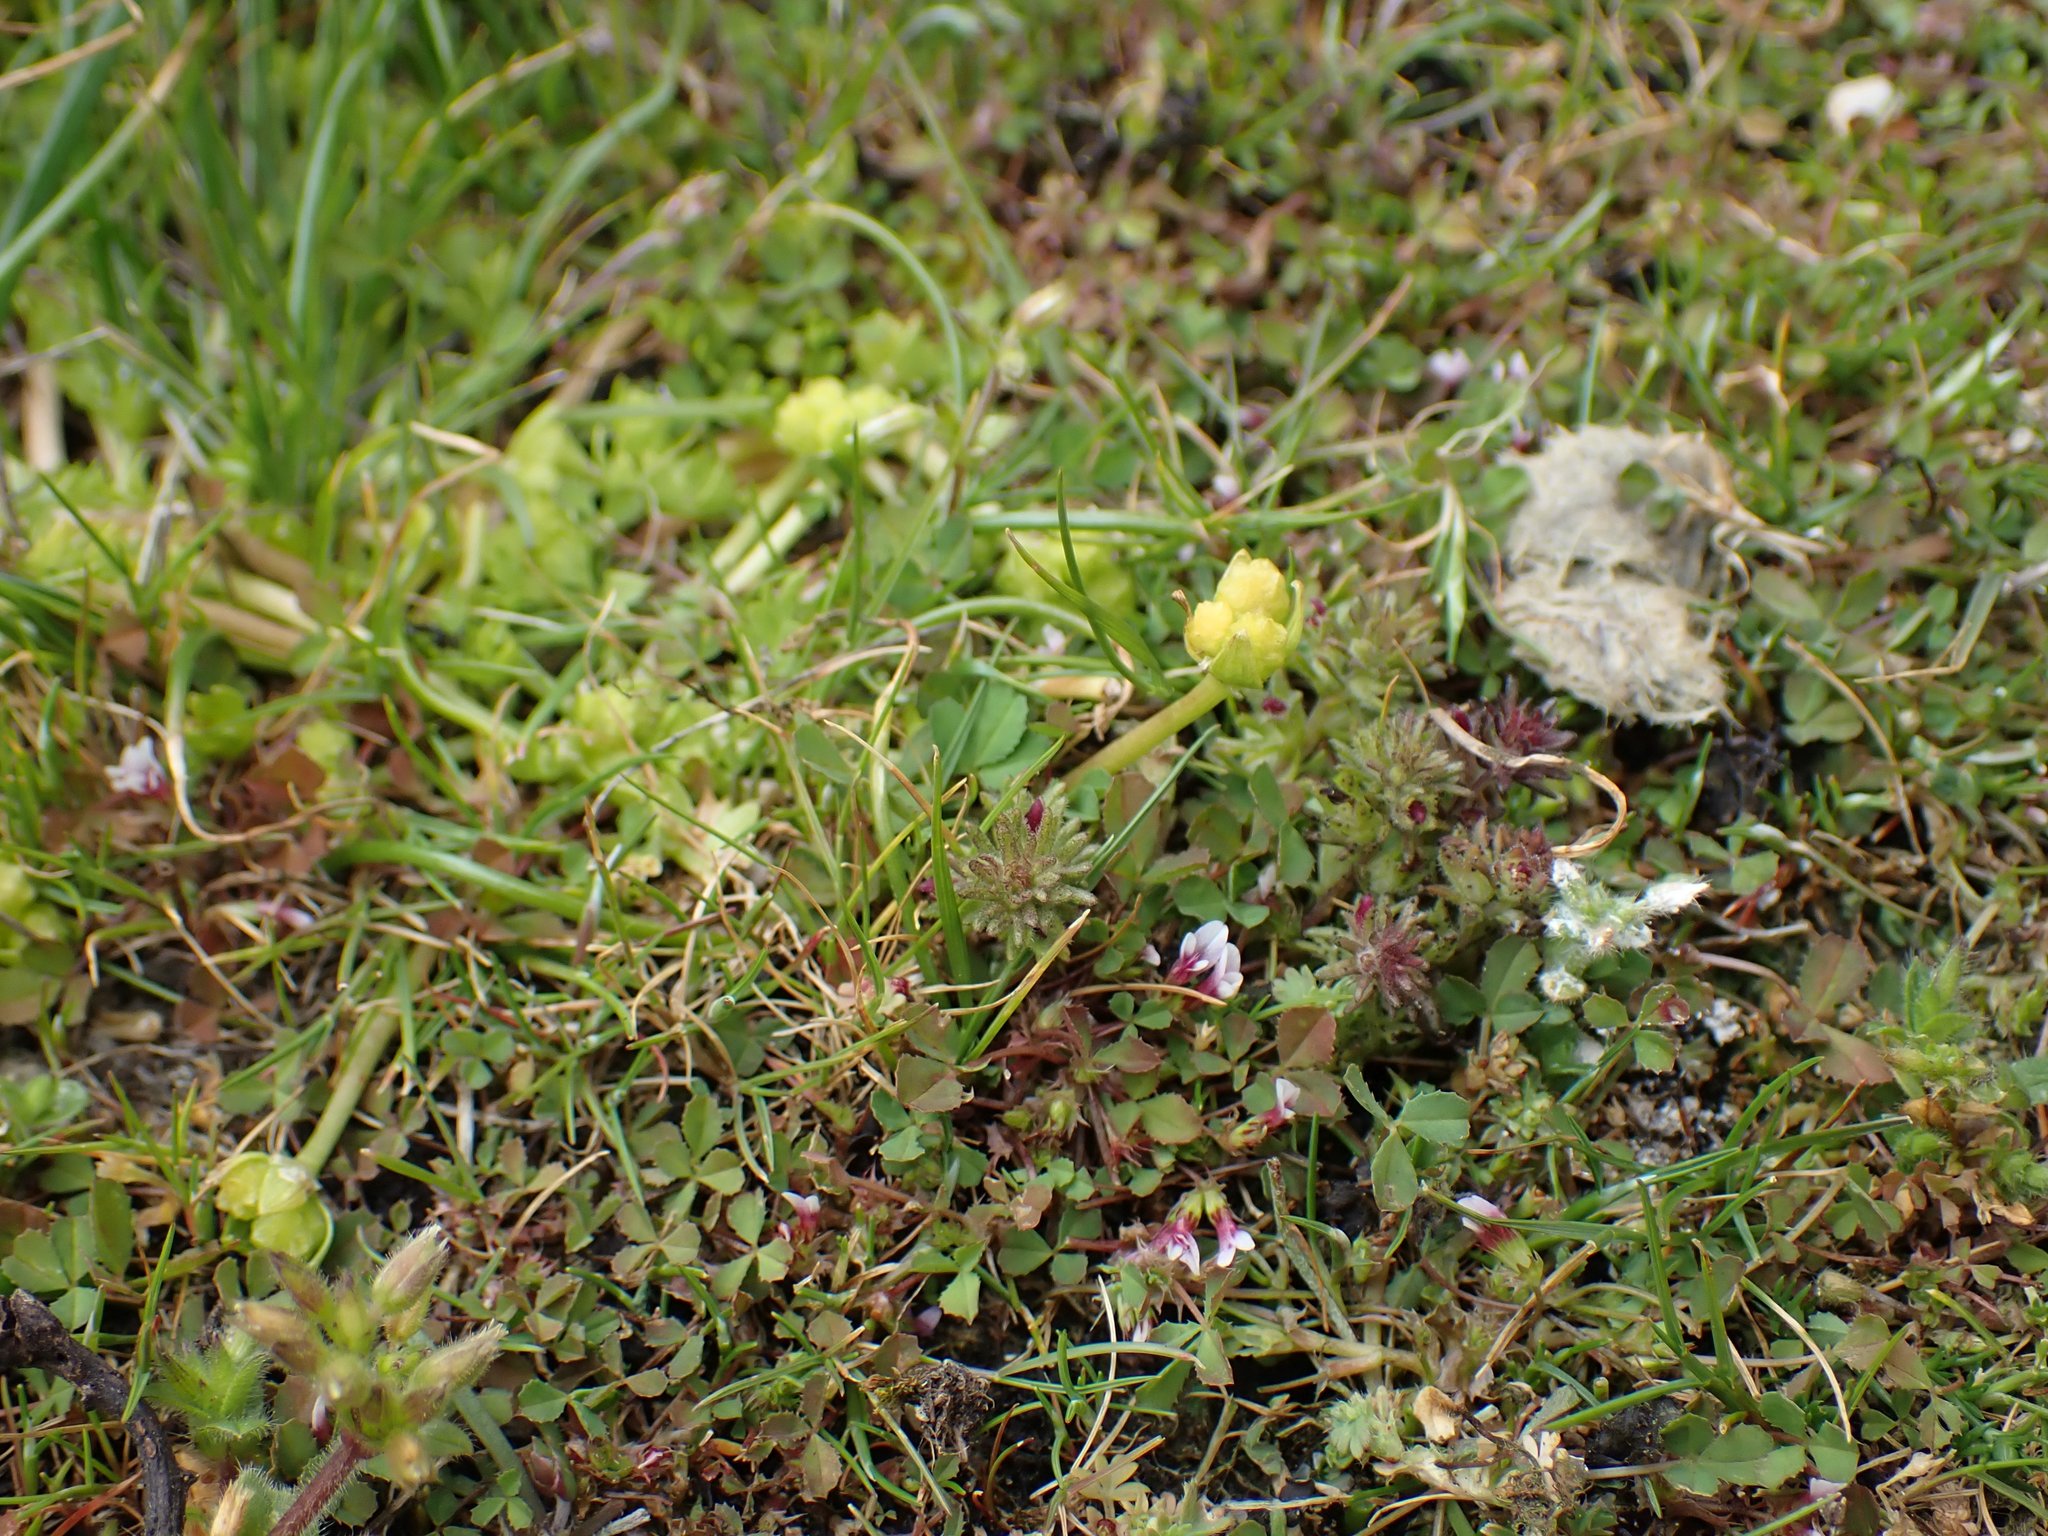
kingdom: Plantae
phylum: Tracheophyta
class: Magnoliopsida
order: Brassicales
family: Limnanthaceae
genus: Limnanthes
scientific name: Limnanthes macounii
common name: Macoun's meadowfoam
